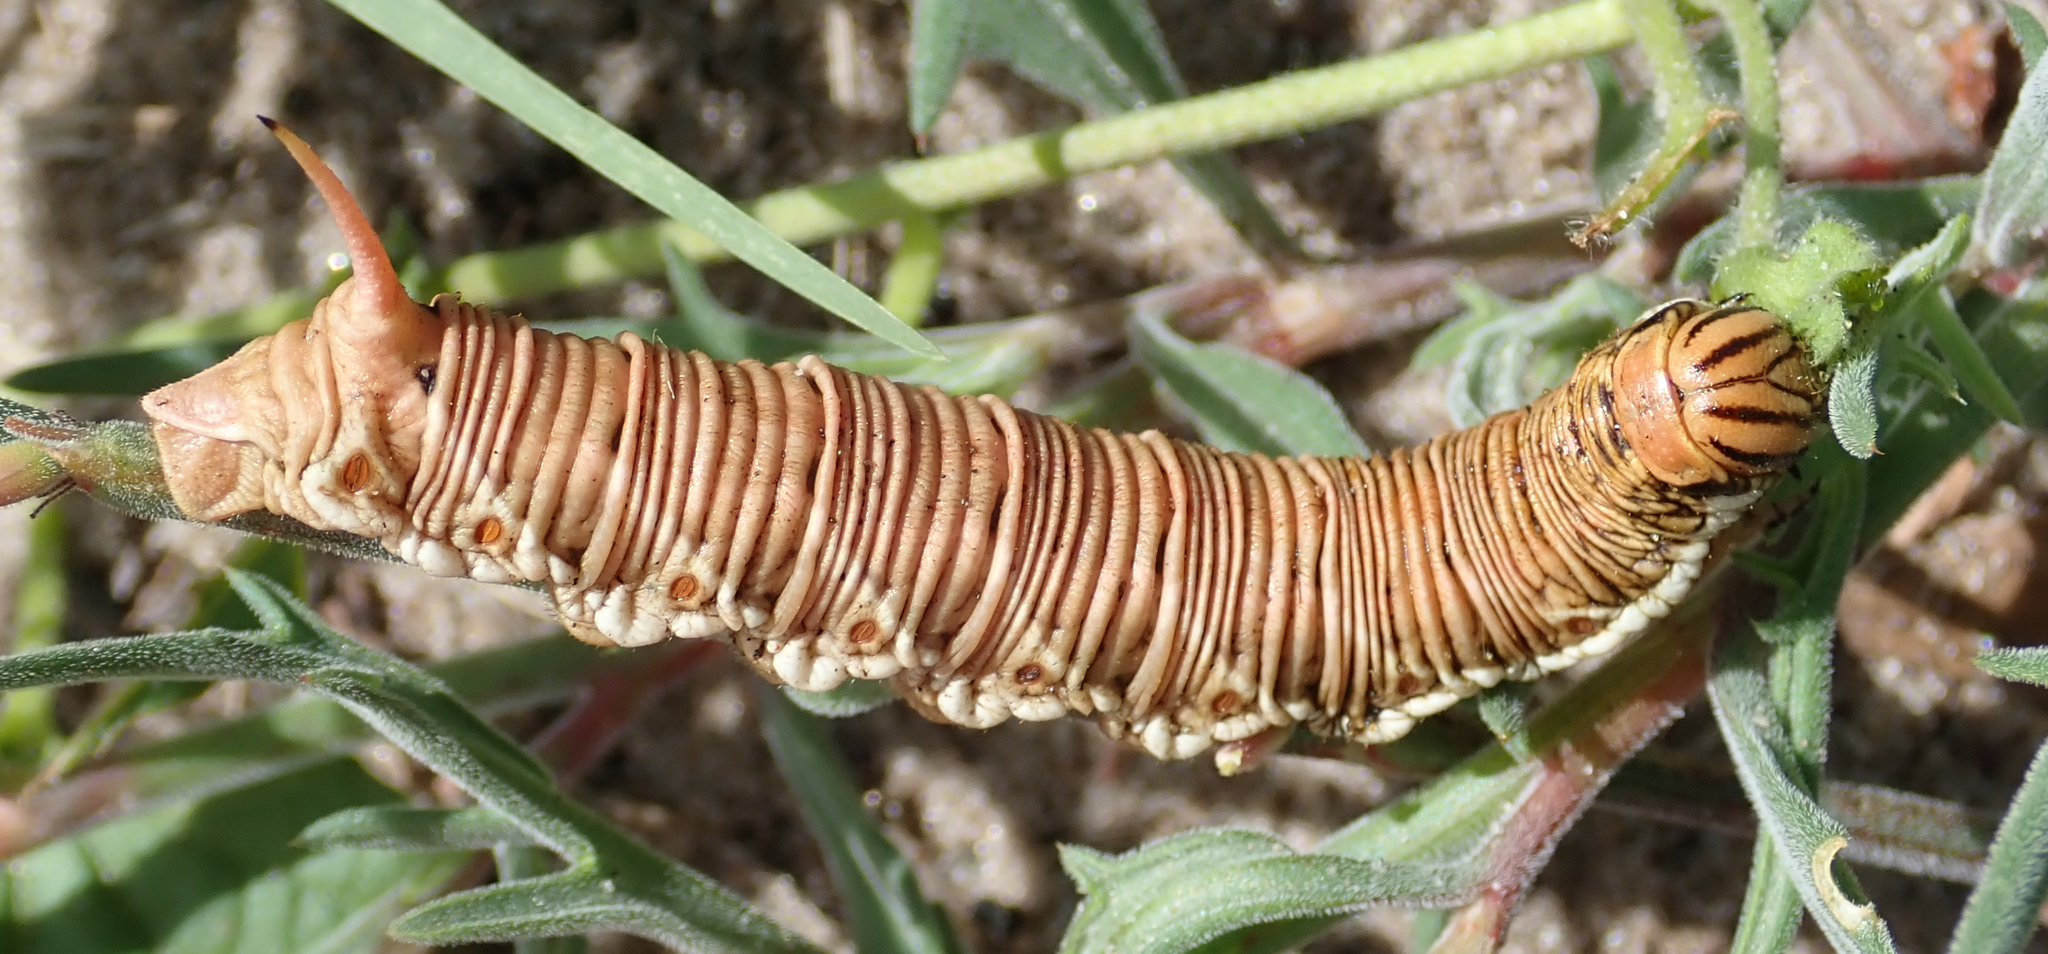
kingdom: Animalia
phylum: Arthropoda
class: Insecta
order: Lepidoptera
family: Sphingidae
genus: Agrius
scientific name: Agrius convolvuli
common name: Convolvulus hawkmoth
